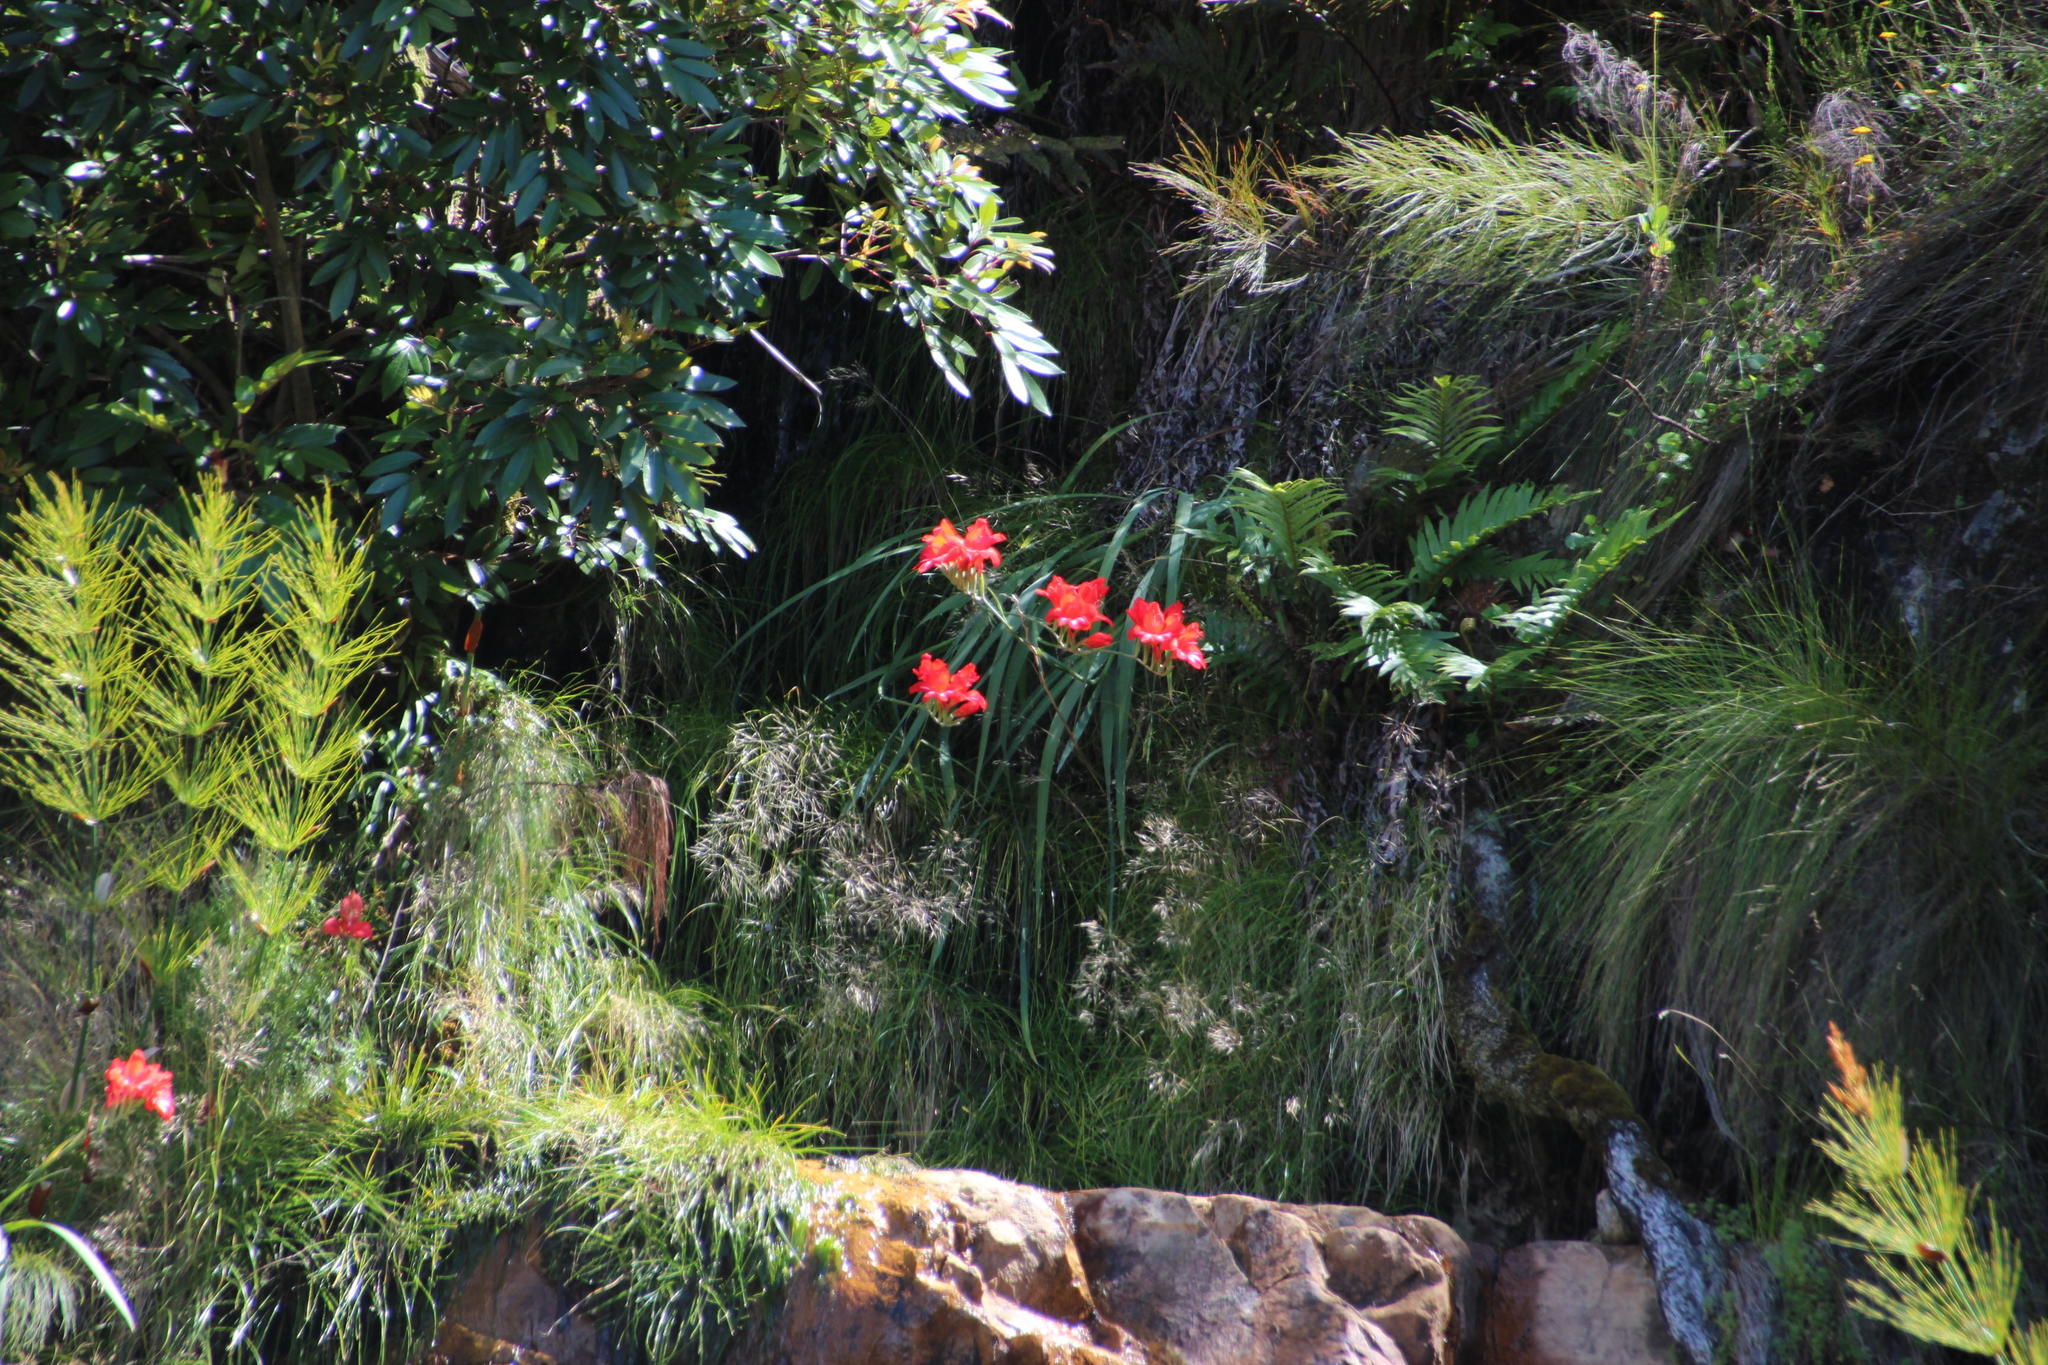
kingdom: Plantae
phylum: Tracheophyta
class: Liliopsida
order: Asparagales
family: Iridaceae
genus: Gladiolus
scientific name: Gladiolus cardinalis
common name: New year-lily
